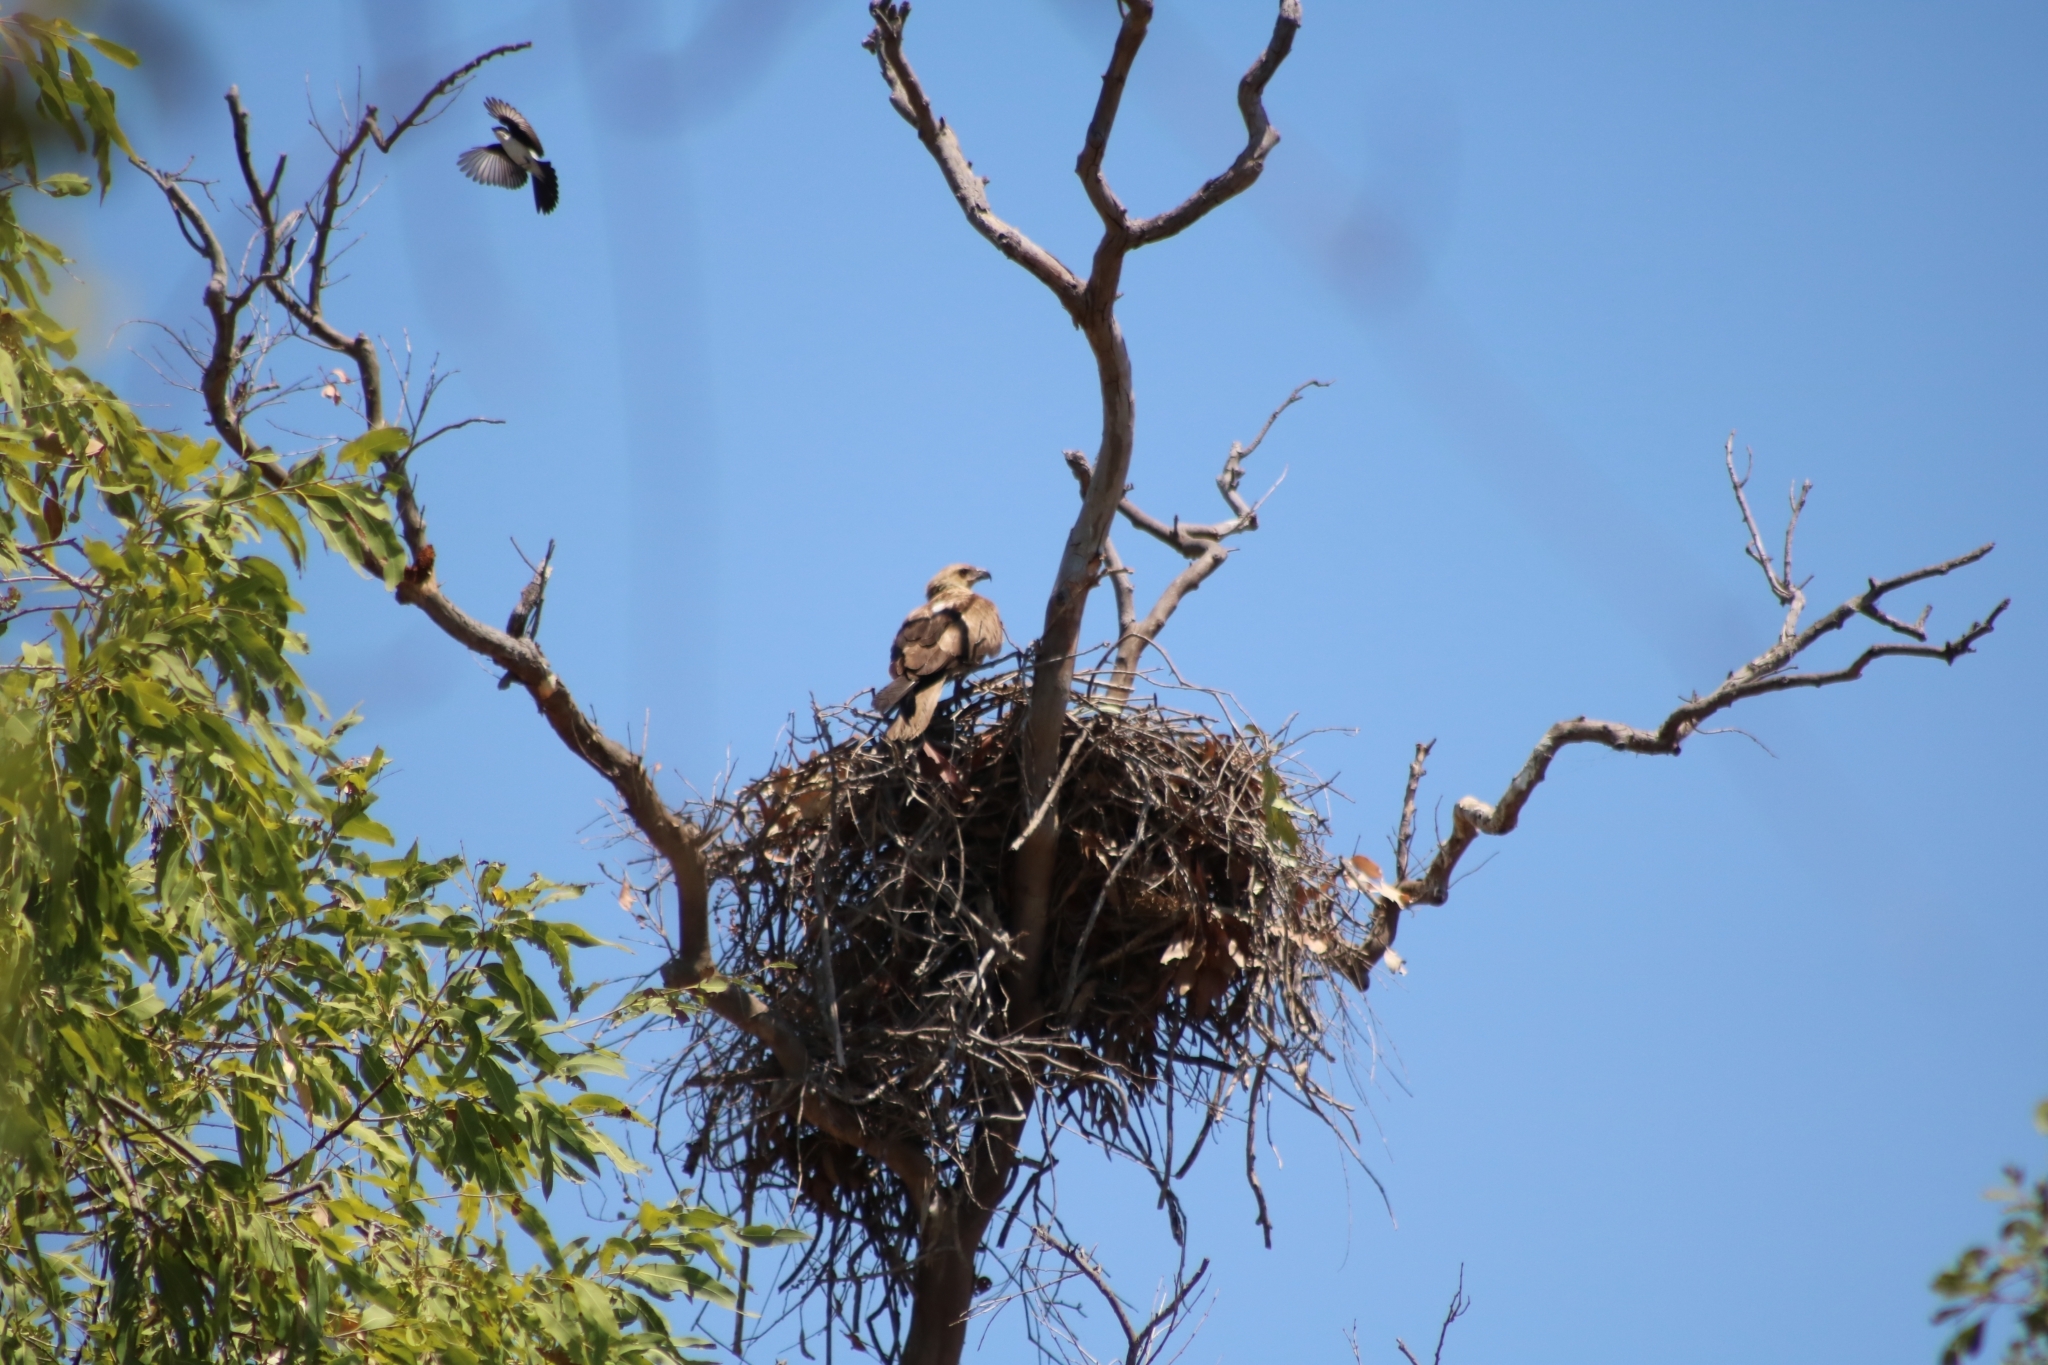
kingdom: Animalia
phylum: Chordata
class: Aves
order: Accipitriformes
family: Accipitridae
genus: Haliastur
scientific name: Haliastur sphenurus
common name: Whistling kite
